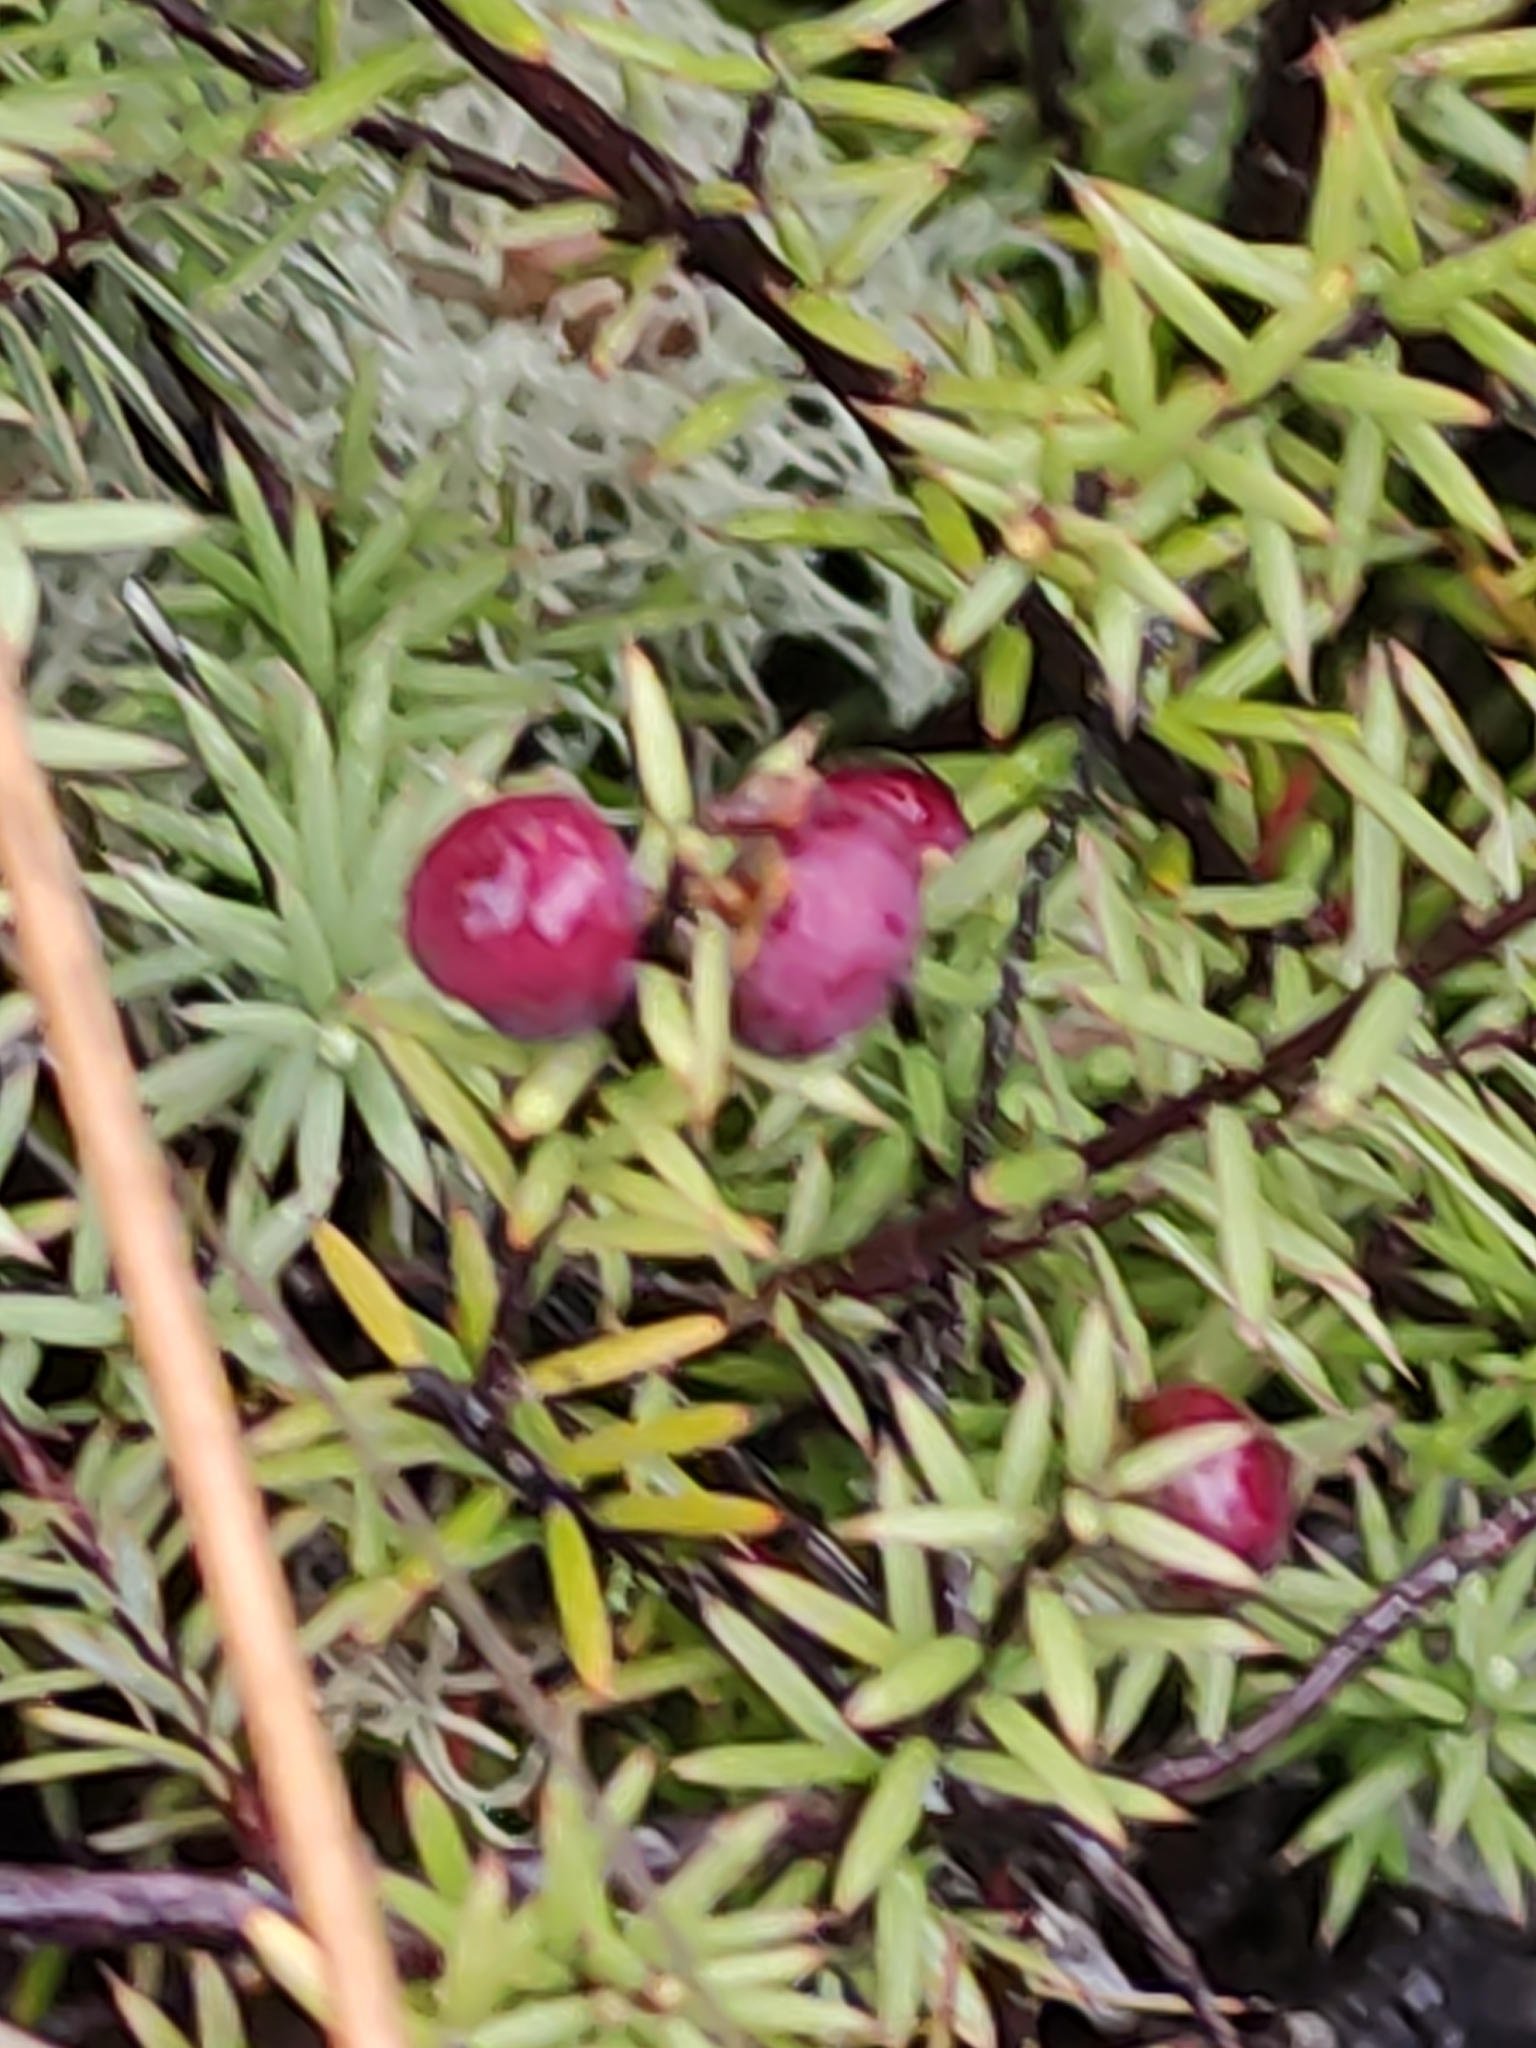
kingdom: Plantae
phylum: Tracheophyta
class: Magnoliopsida
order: Ericales
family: Ericaceae
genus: Leptecophylla
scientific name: Leptecophylla juniperina
